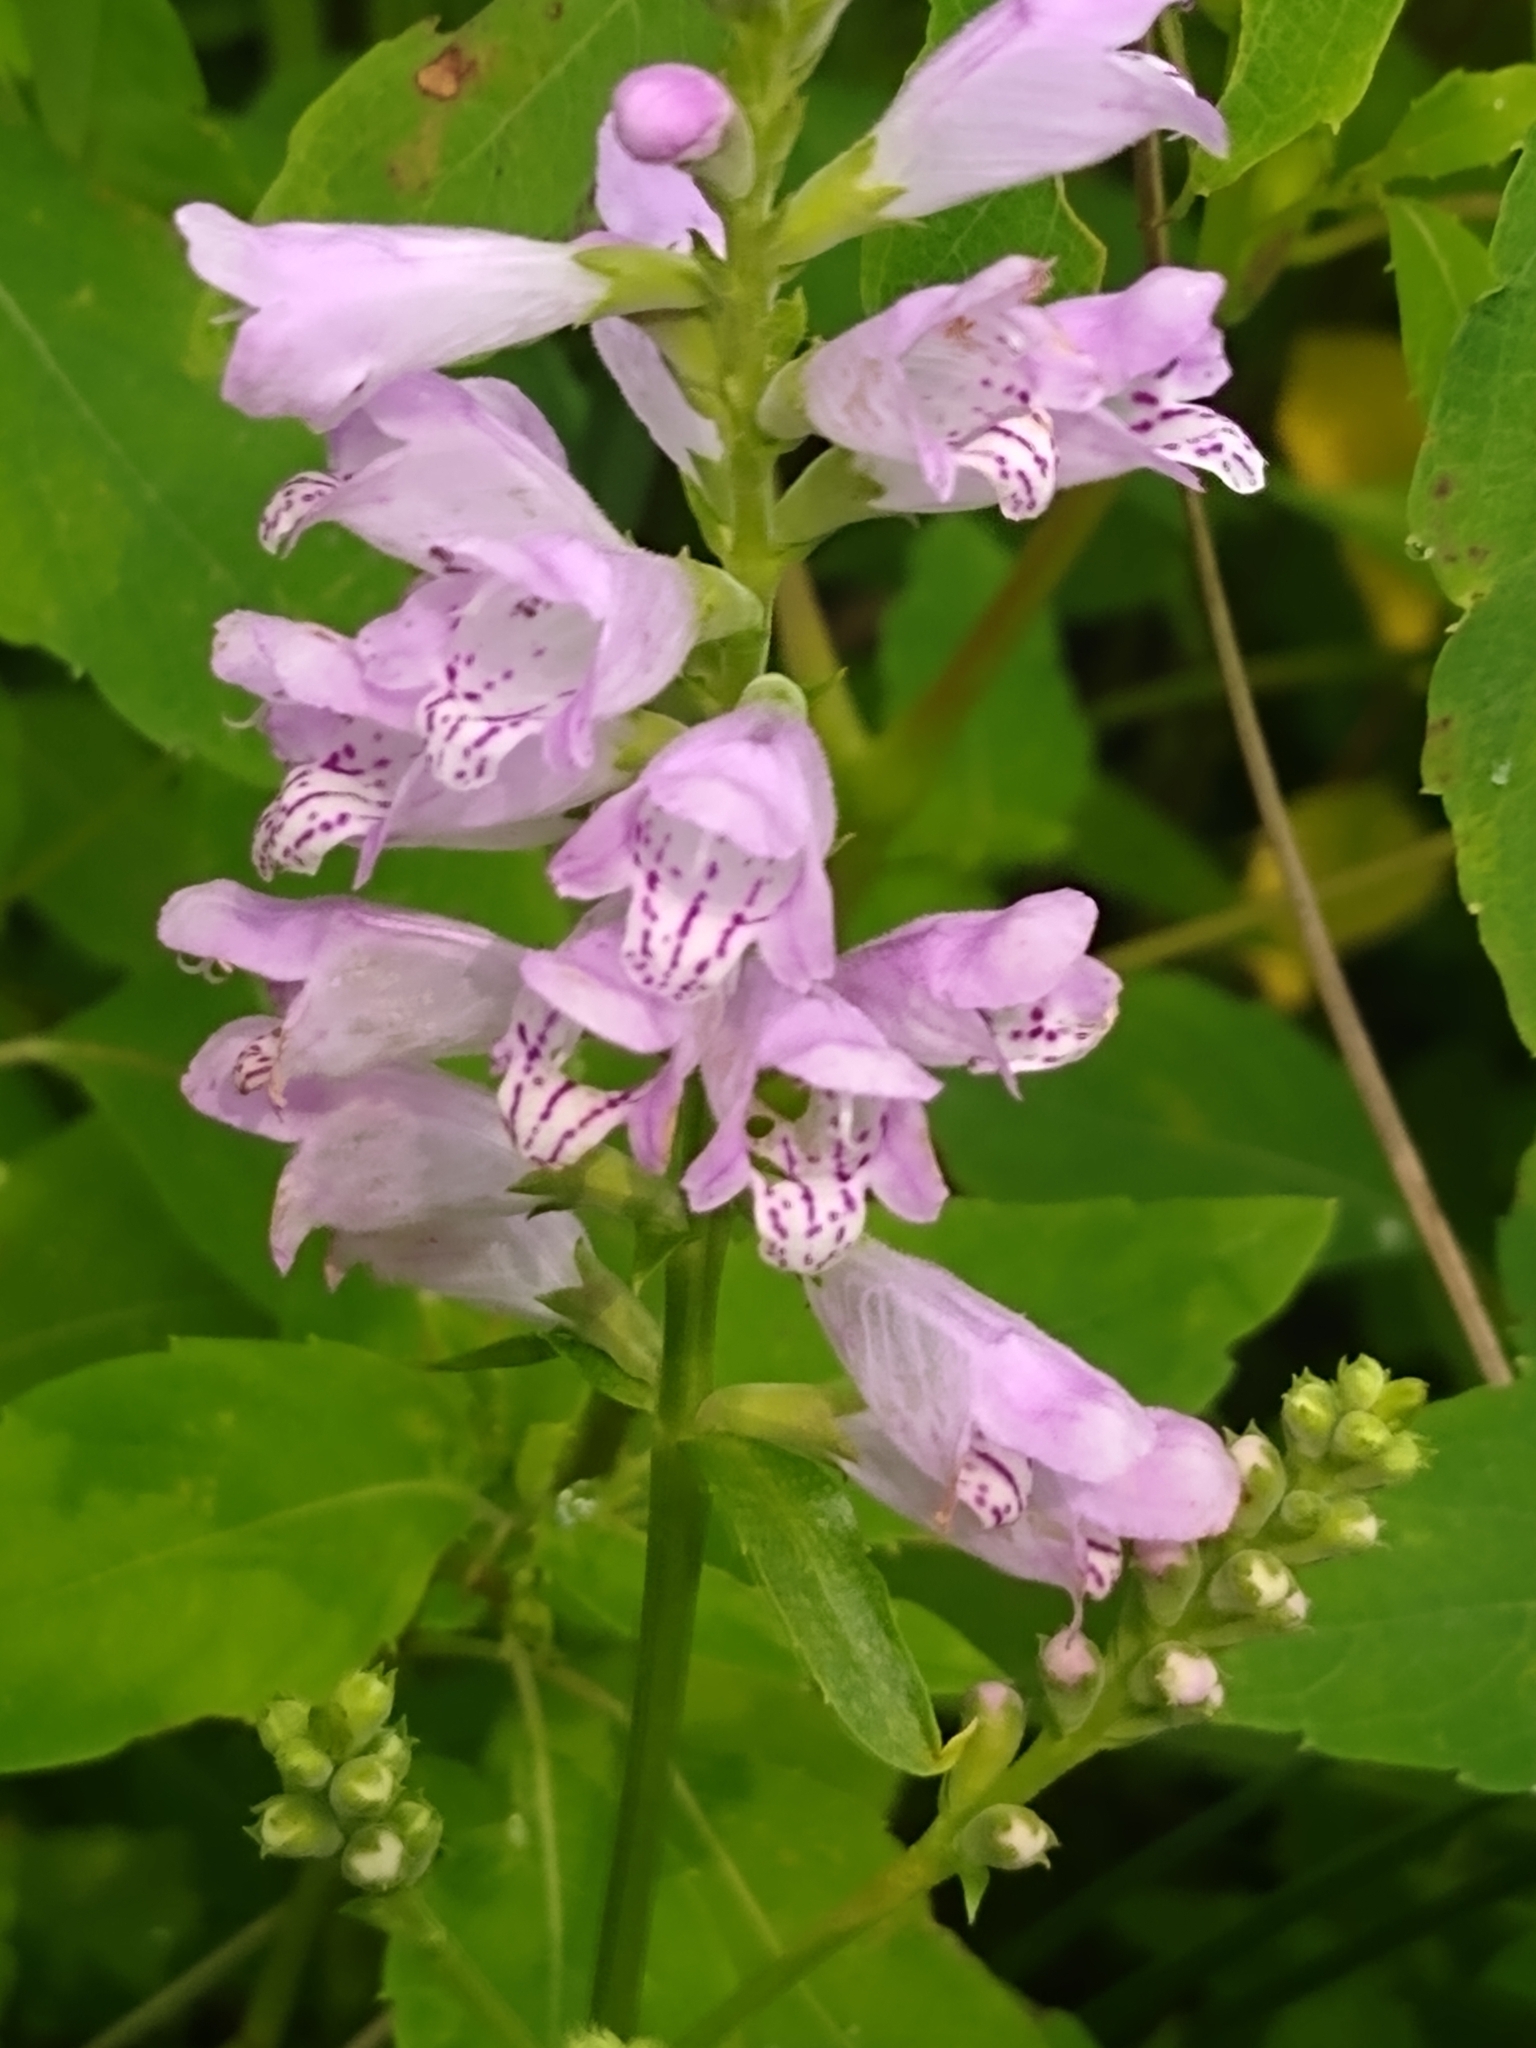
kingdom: Plantae
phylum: Tracheophyta
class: Magnoliopsida
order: Lamiales
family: Lamiaceae
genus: Physostegia
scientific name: Physostegia virginiana
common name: Obedient-plant
